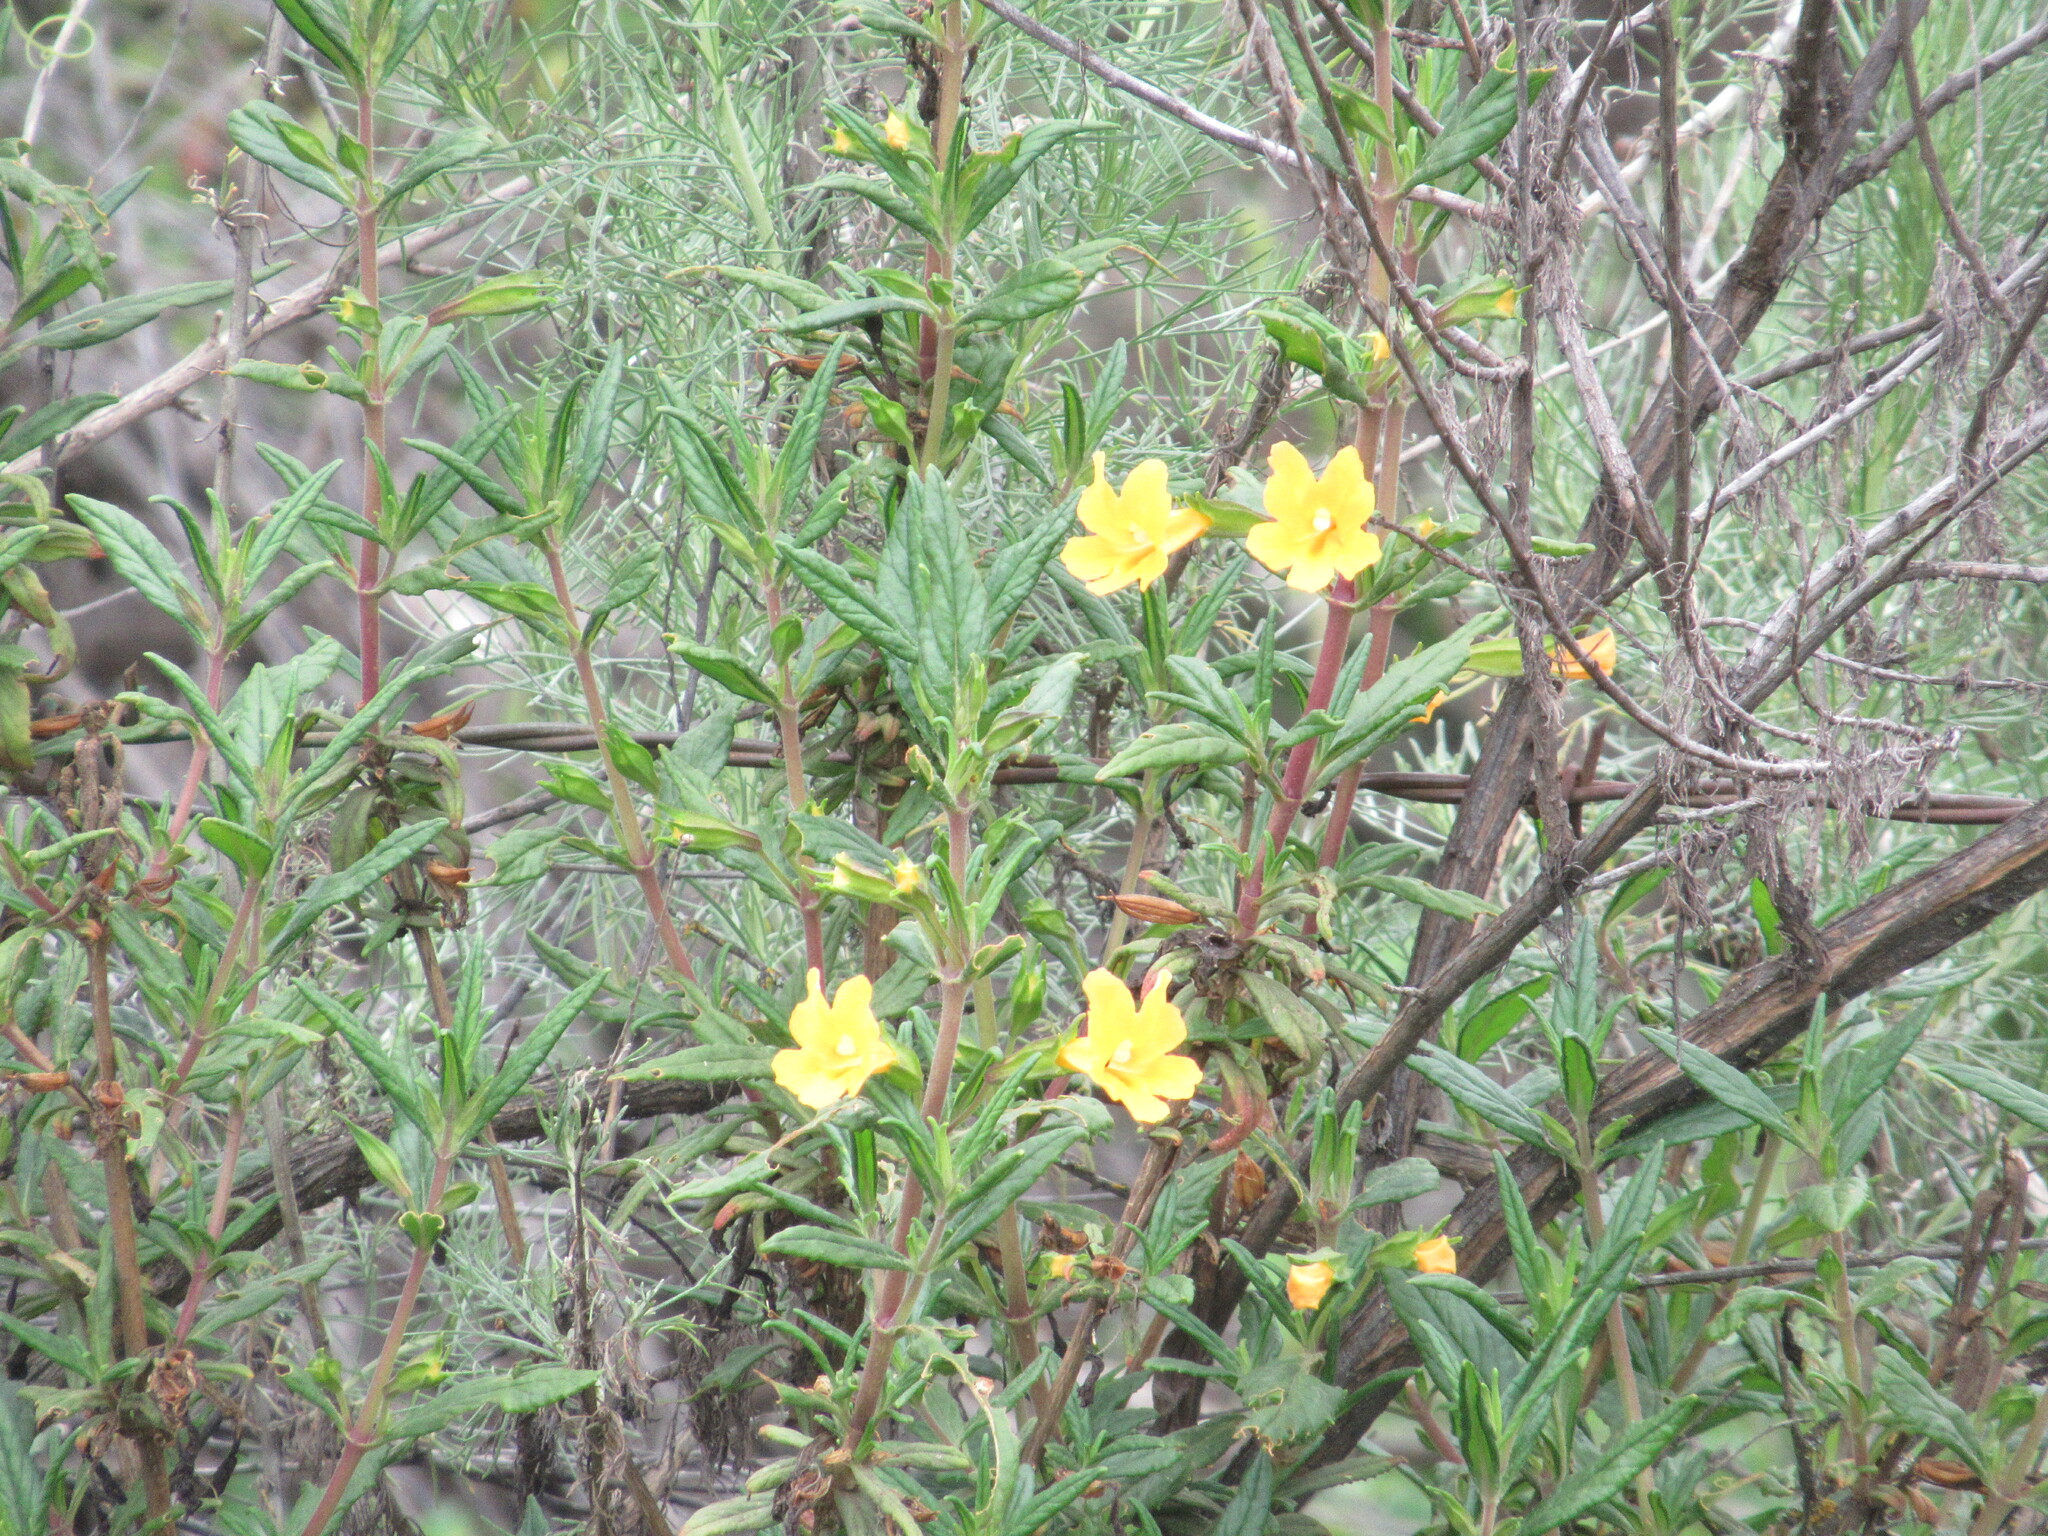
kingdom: Plantae
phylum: Tracheophyta
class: Magnoliopsida
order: Lamiales
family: Phrymaceae
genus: Diplacus
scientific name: Diplacus aurantiacus
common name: Bush monkey-flower
